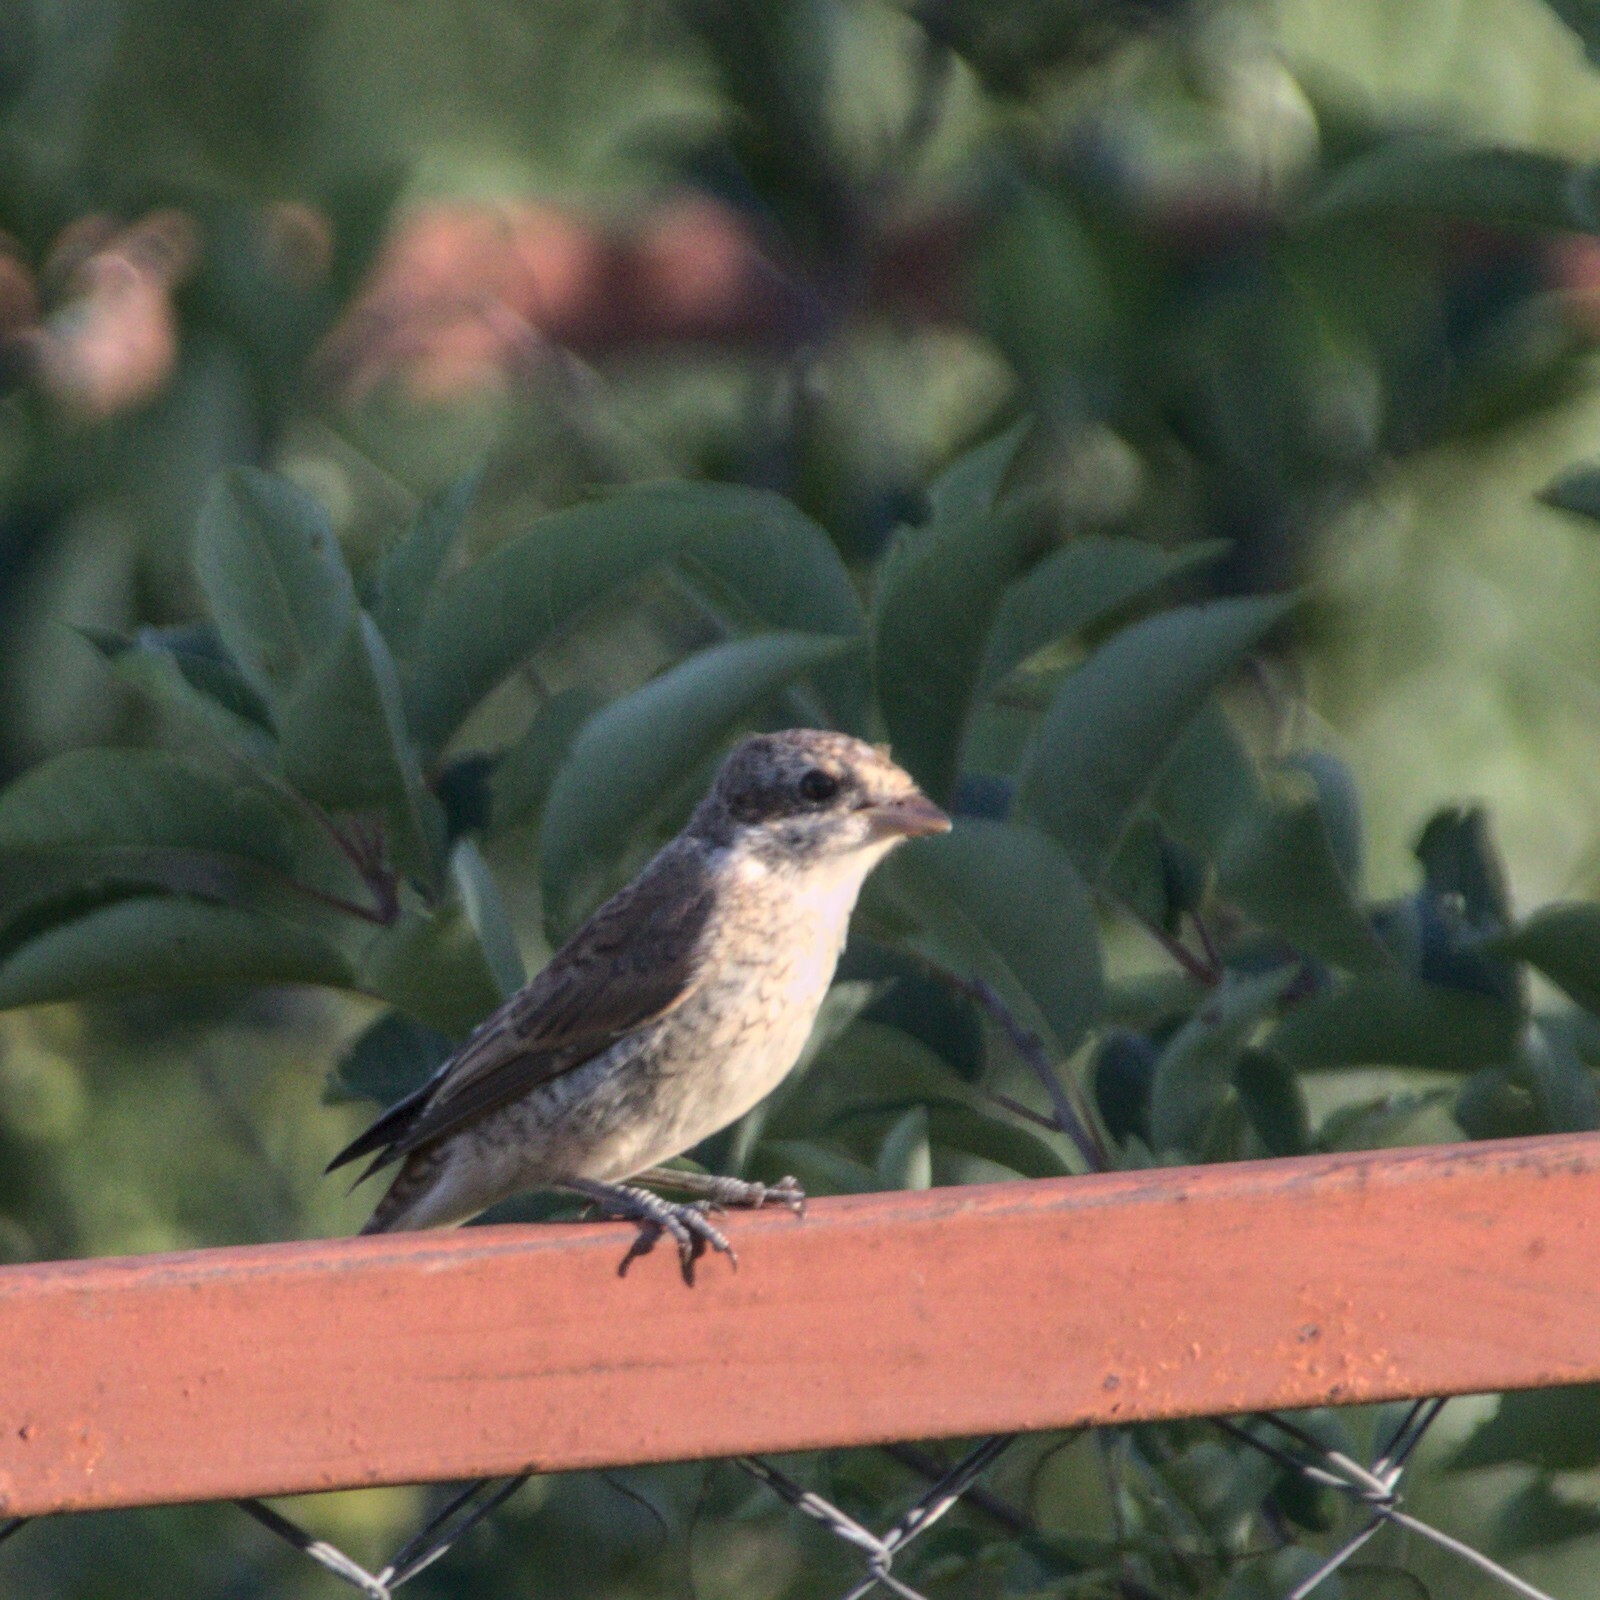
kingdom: Animalia
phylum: Chordata
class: Aves
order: Passeriformes
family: Laniidae
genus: Lanius
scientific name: Lanius collurio
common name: Red-backed shrike
